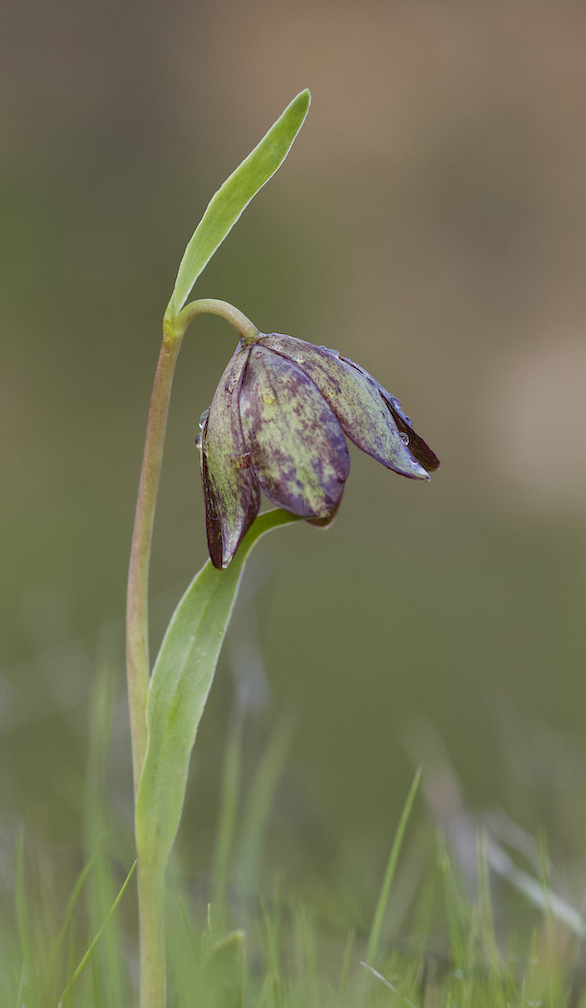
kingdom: Plantae
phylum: Tracheophyta
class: Liliopsida
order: Liliales
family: Liliaceae
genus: Fritillaria
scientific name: Fritillaria agrestis
